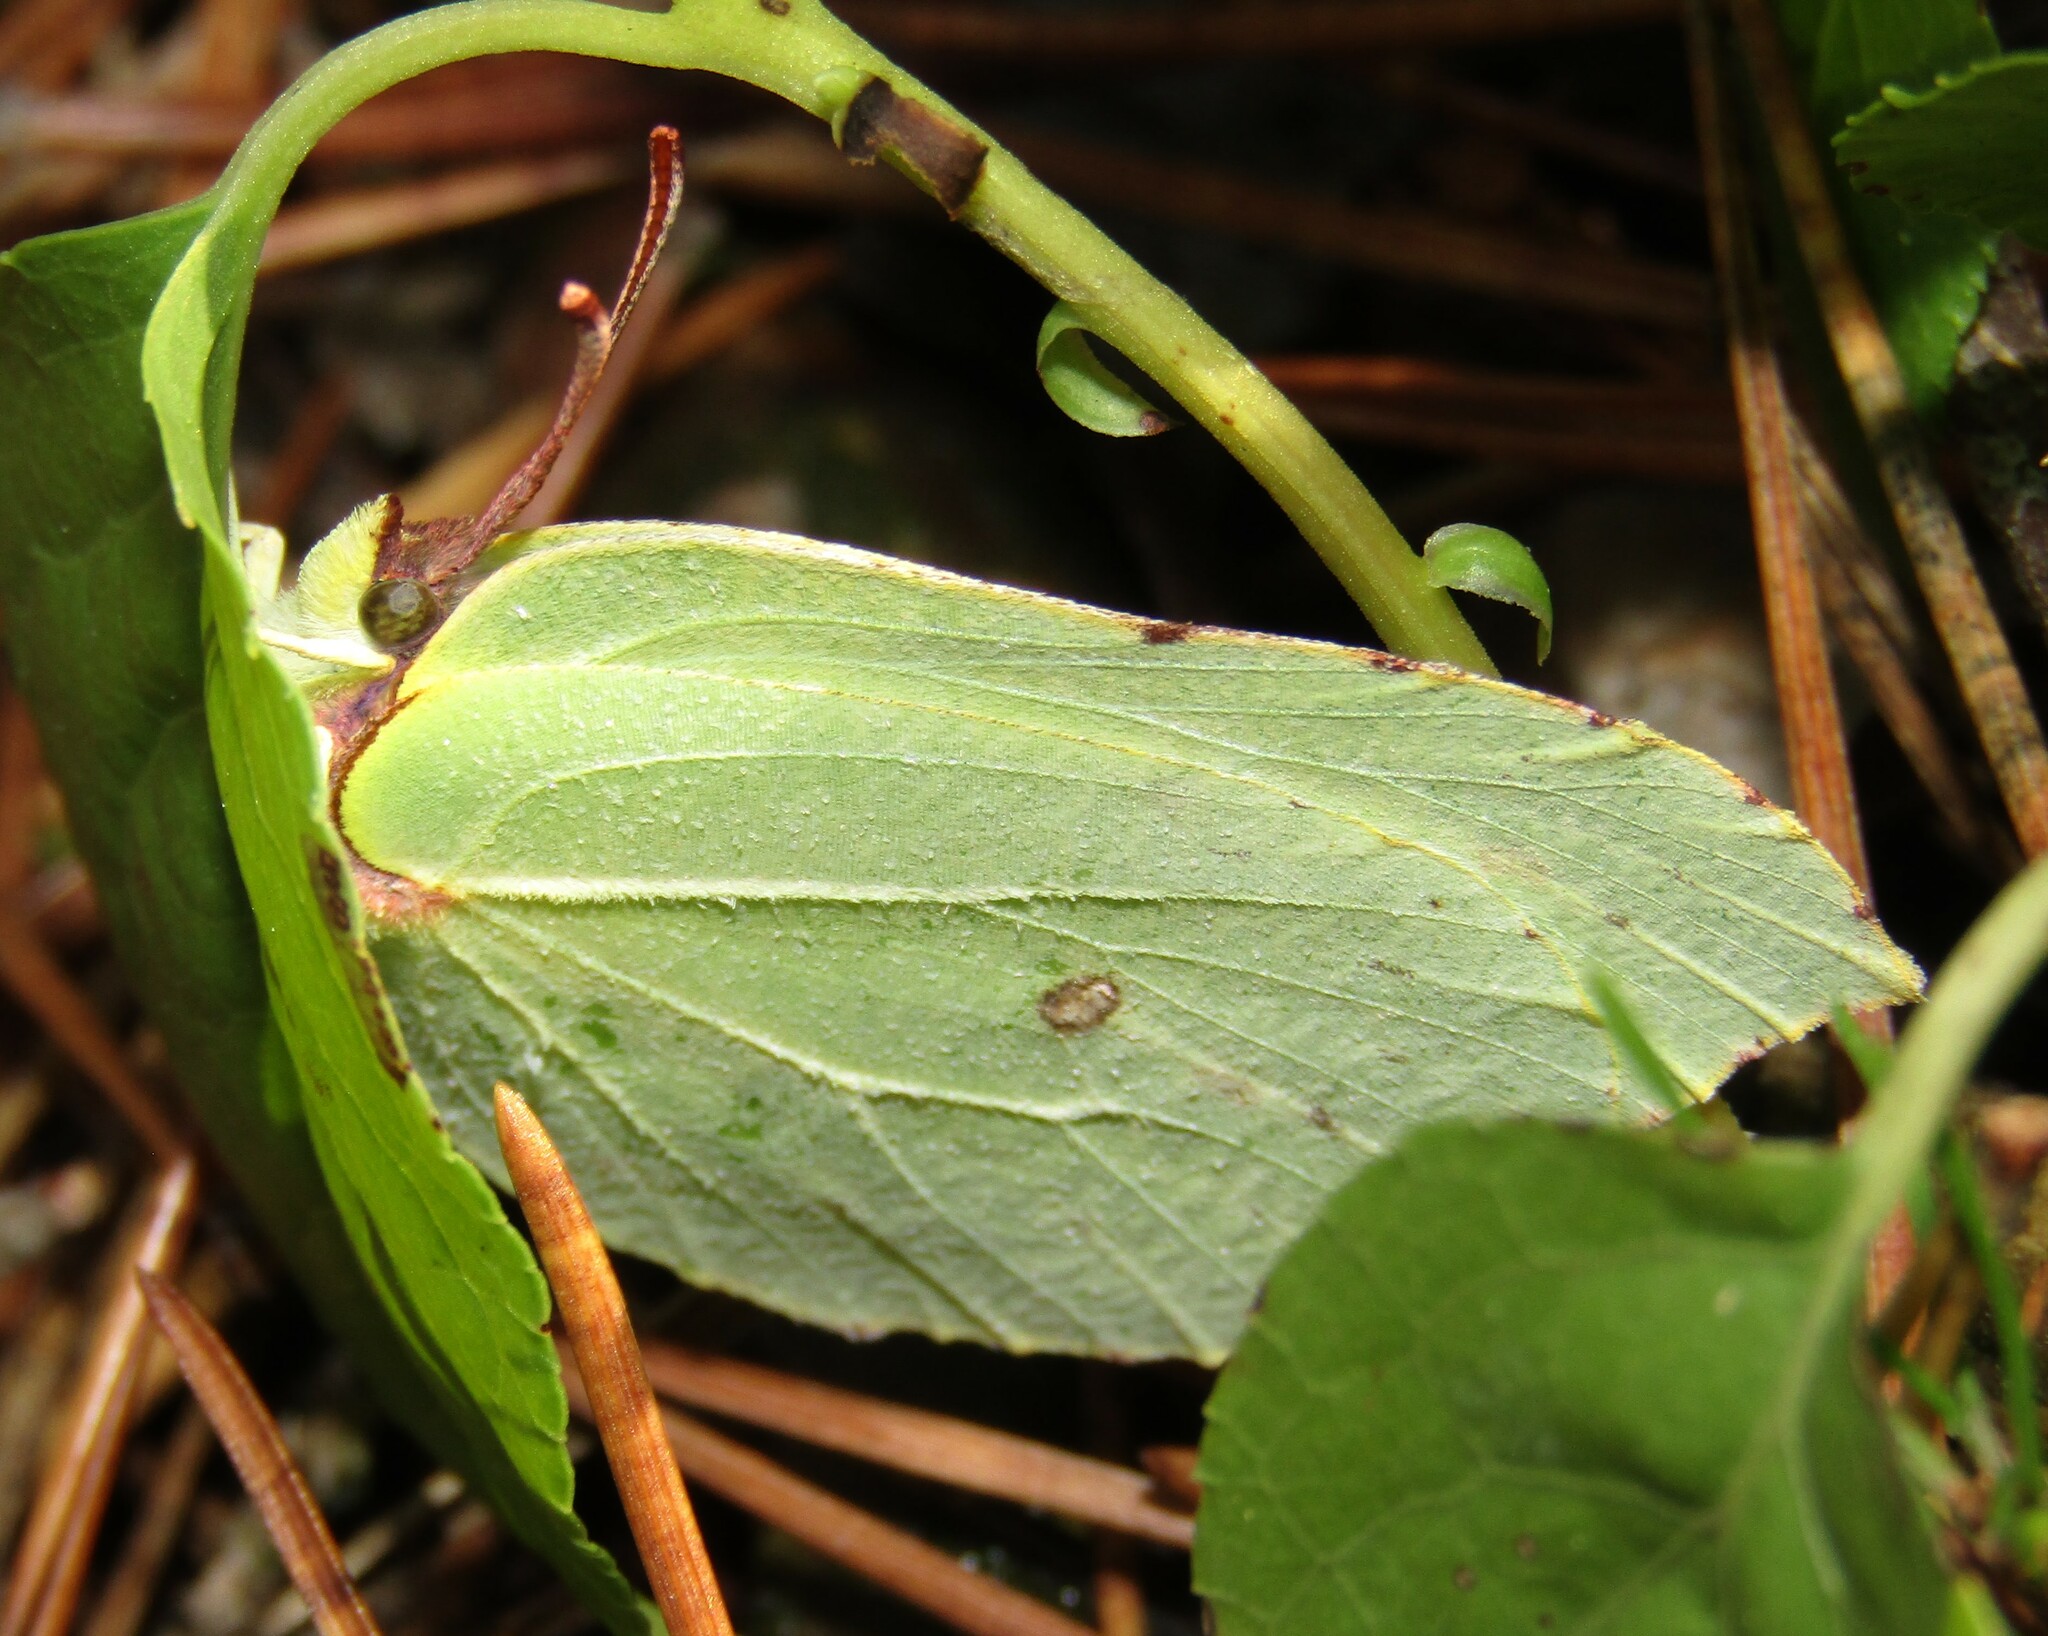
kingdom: Animalia
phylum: Arthropoda
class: Insecta
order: Lepidoptera
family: Pieridae
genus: Gonepteryx
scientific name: Gonepteryx rhamni
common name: Brimstone
